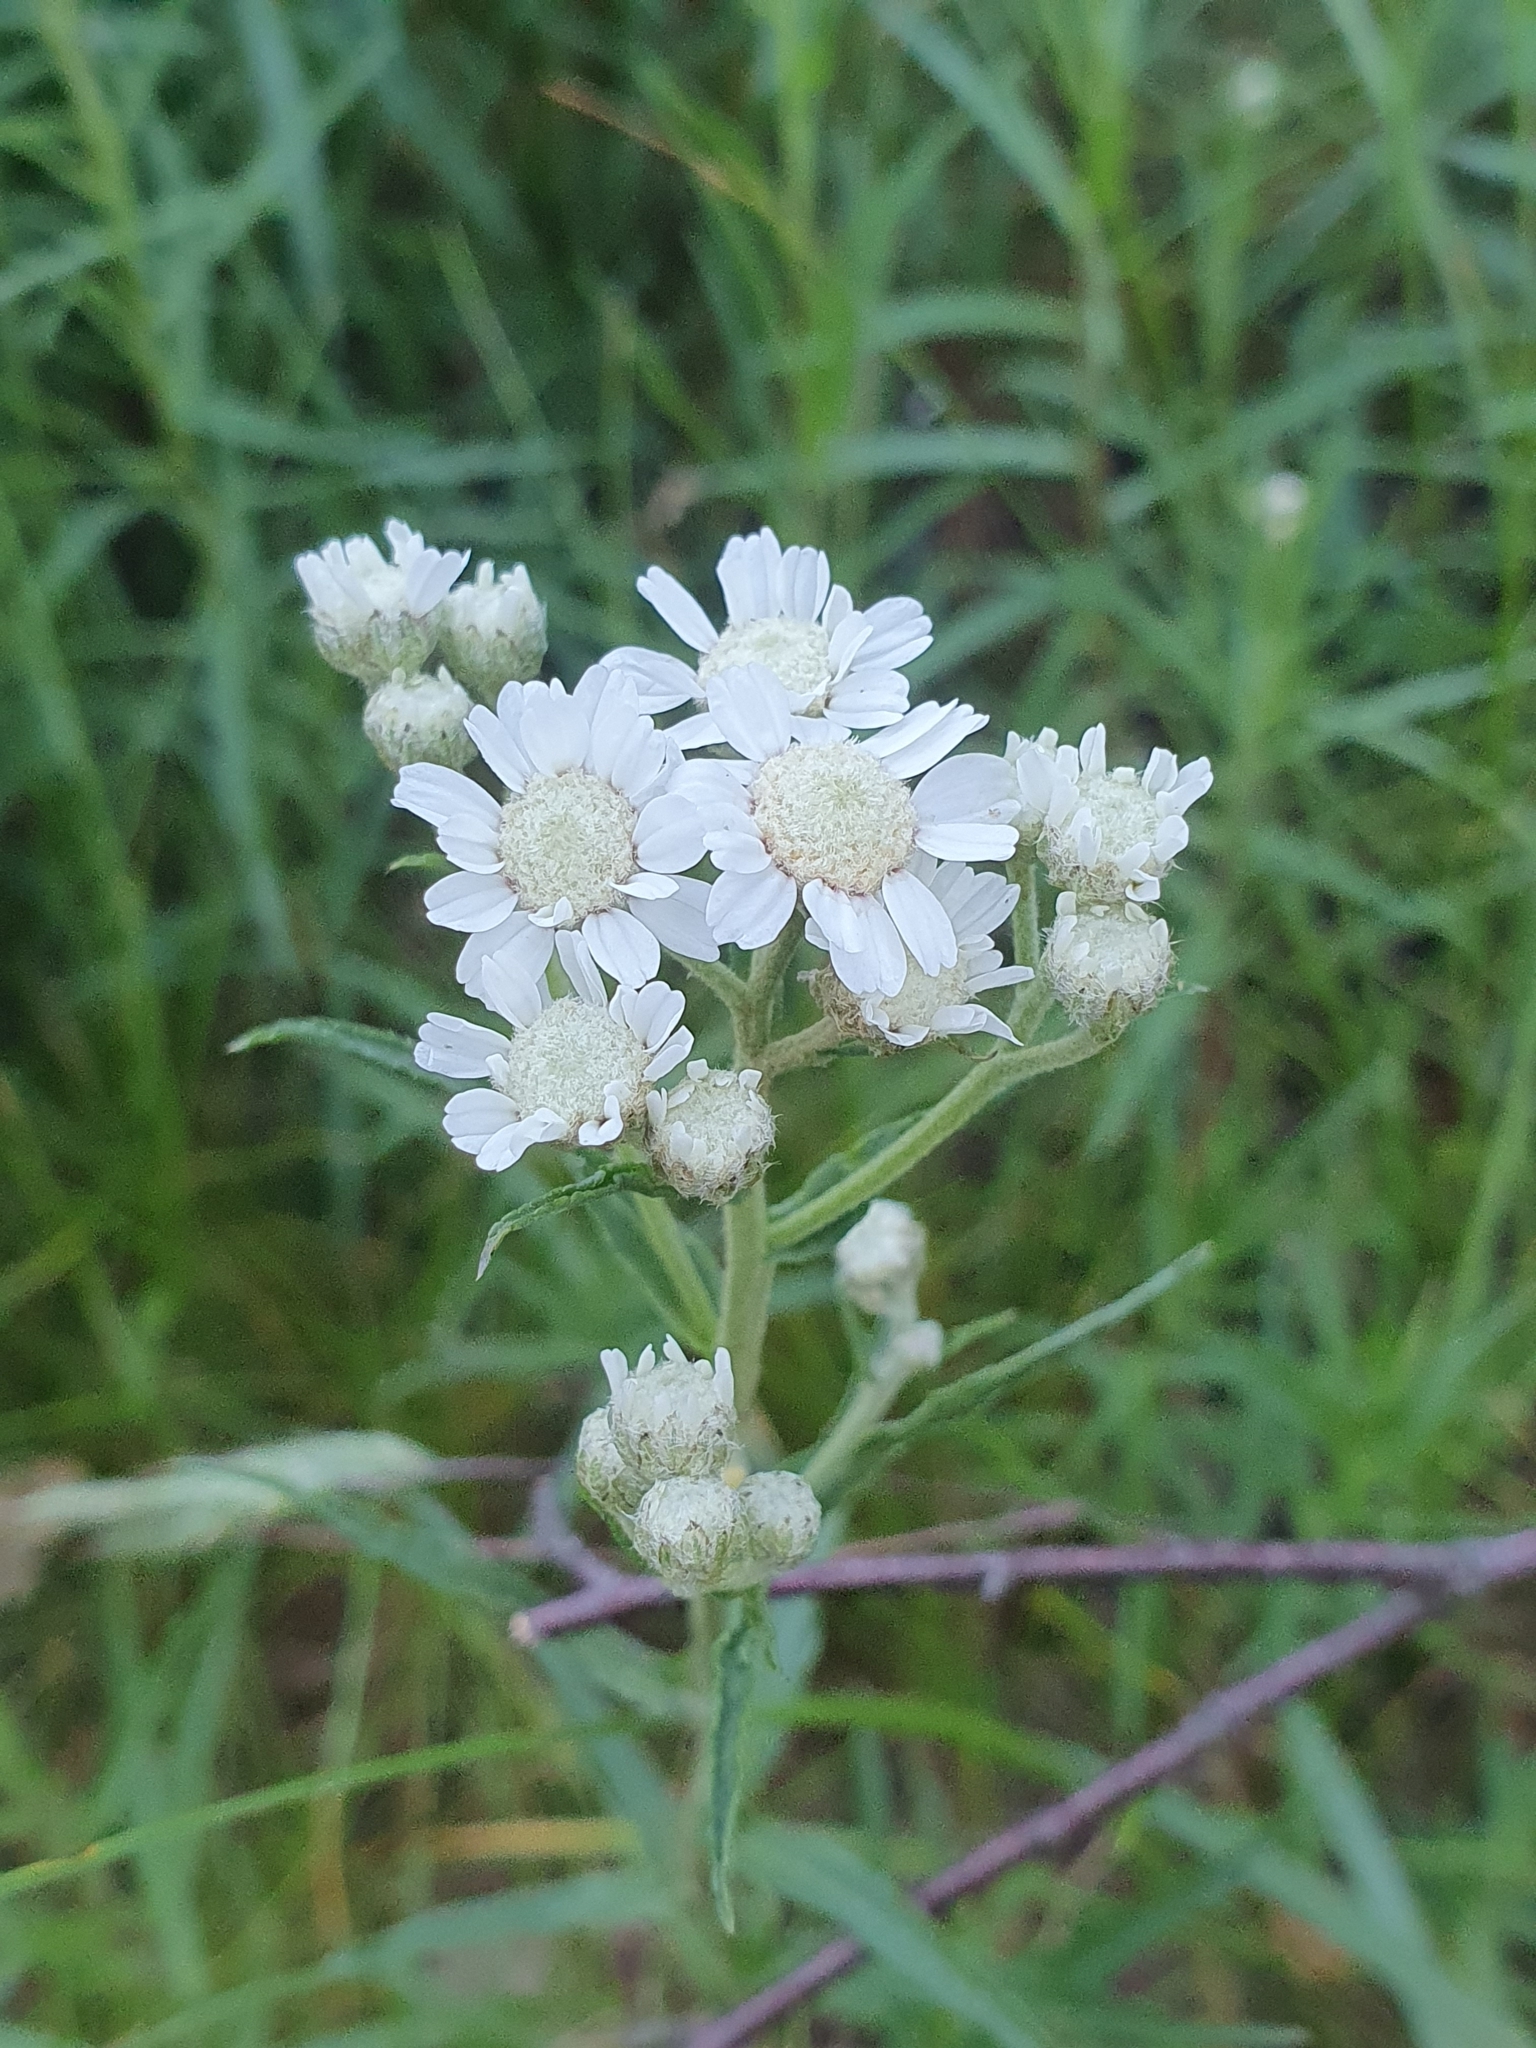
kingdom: Plantae
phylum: Tracheophyta
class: Magnoliopsida
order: Asterales
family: Asteraceae
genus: Achillea
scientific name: Achillea ptarmica
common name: Sneezeweed
